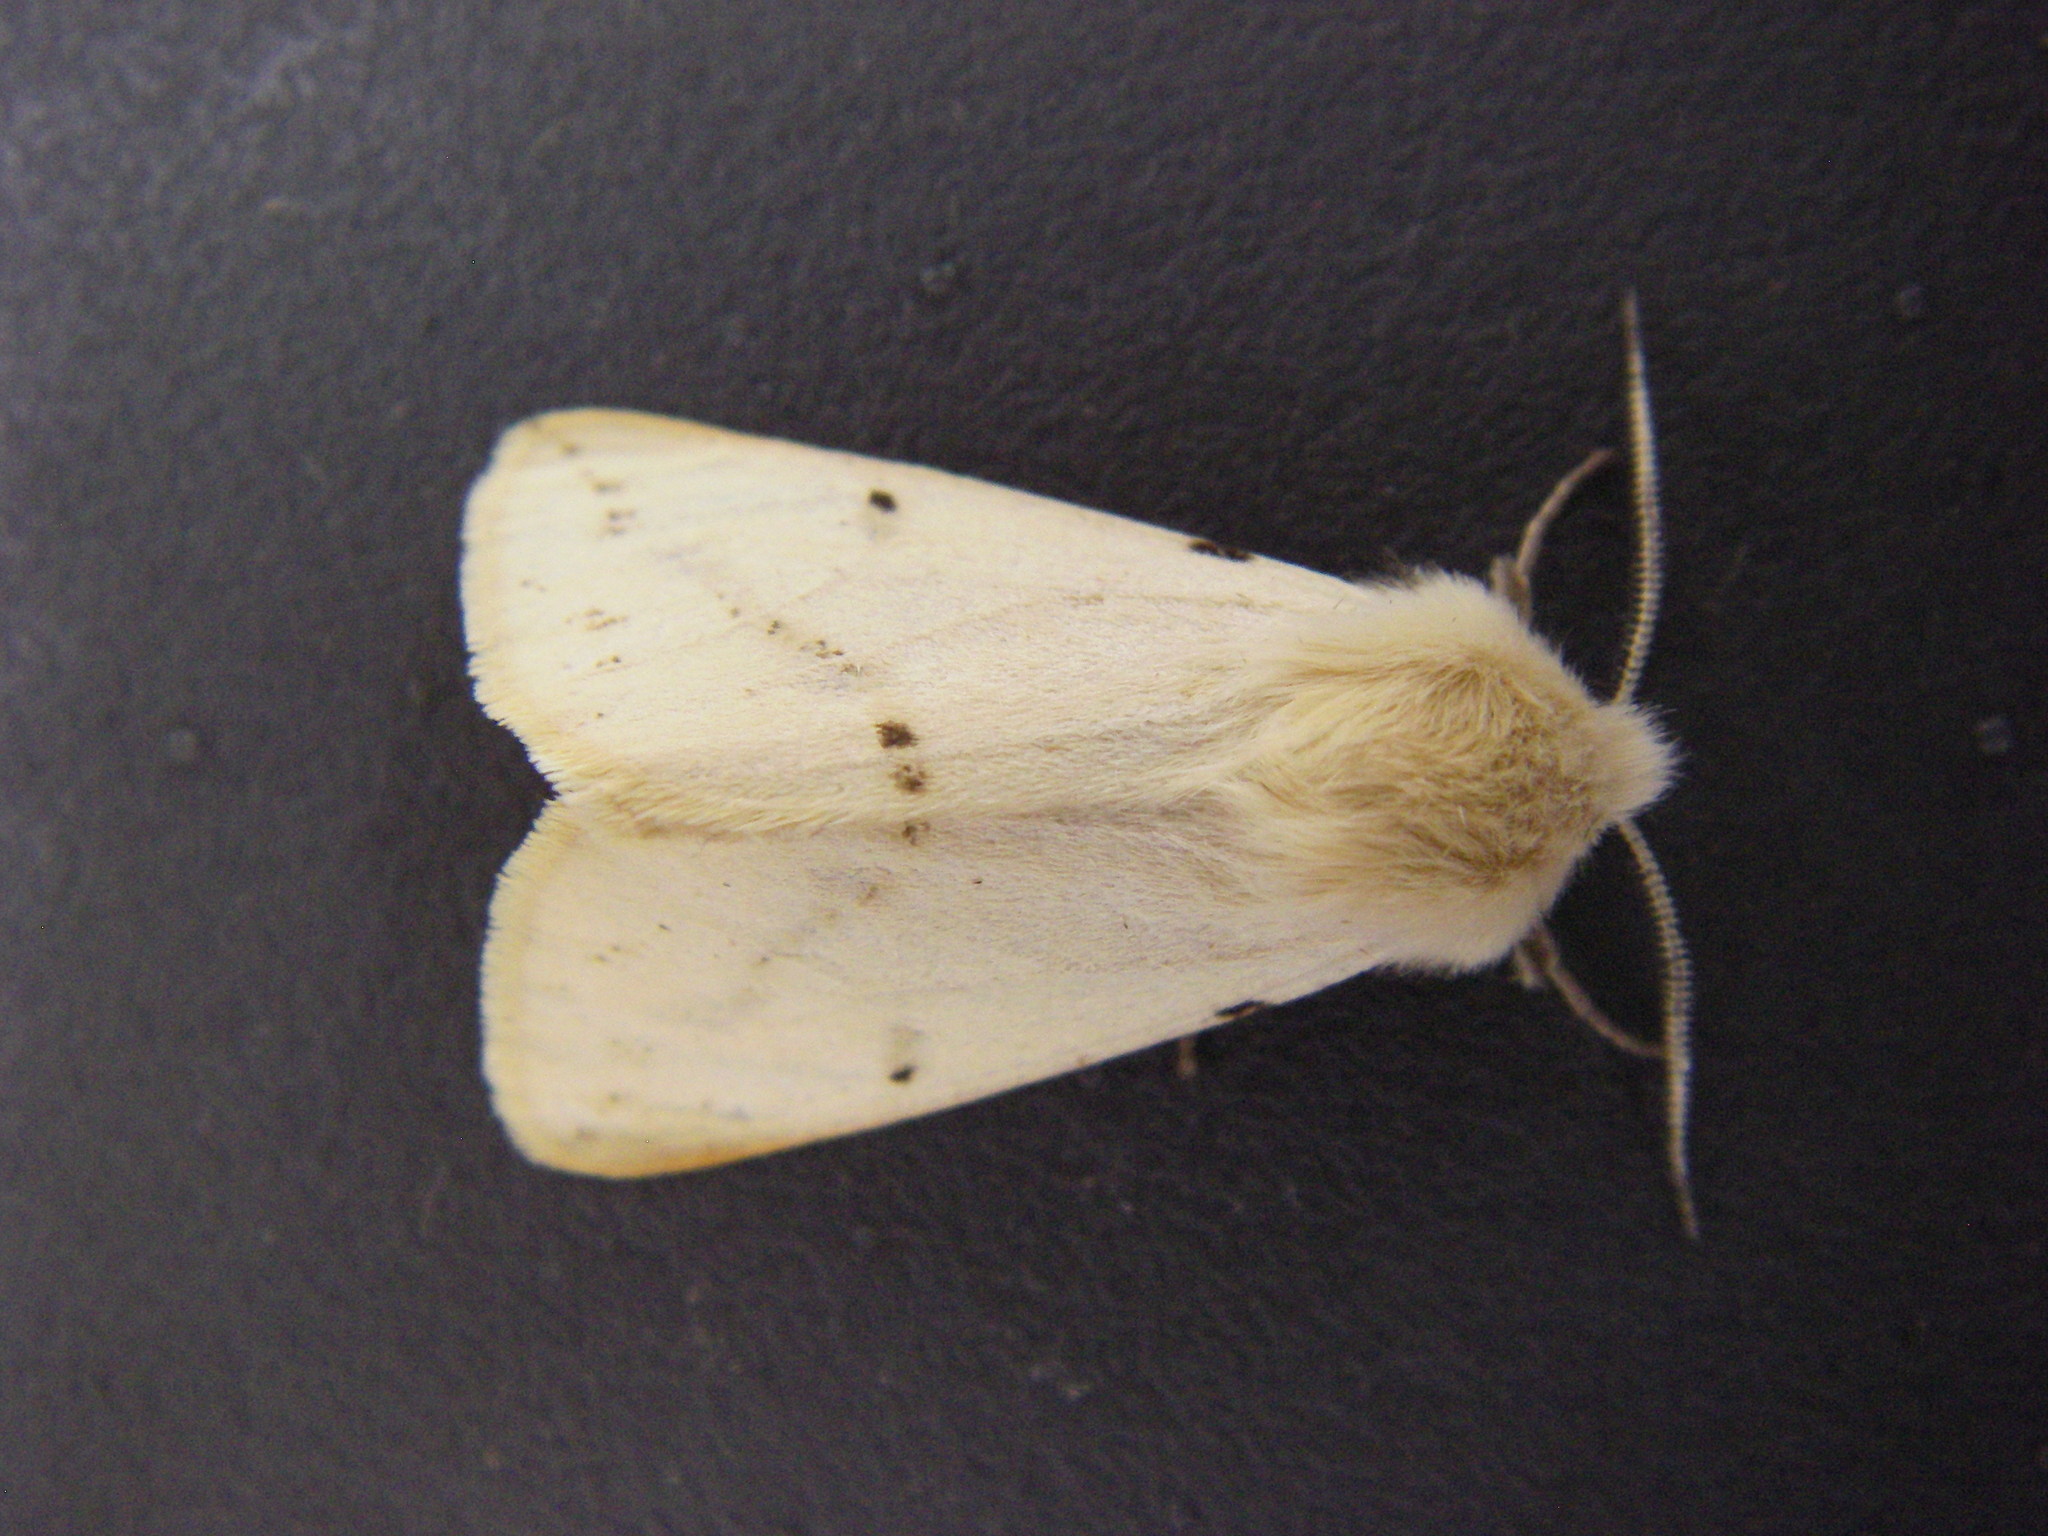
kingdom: Animalia
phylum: Arthropoda
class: Insecta
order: Lepidoptera
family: Erebidae
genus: Spilosoma
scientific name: Spilosoma lubricipeda
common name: White ermine
